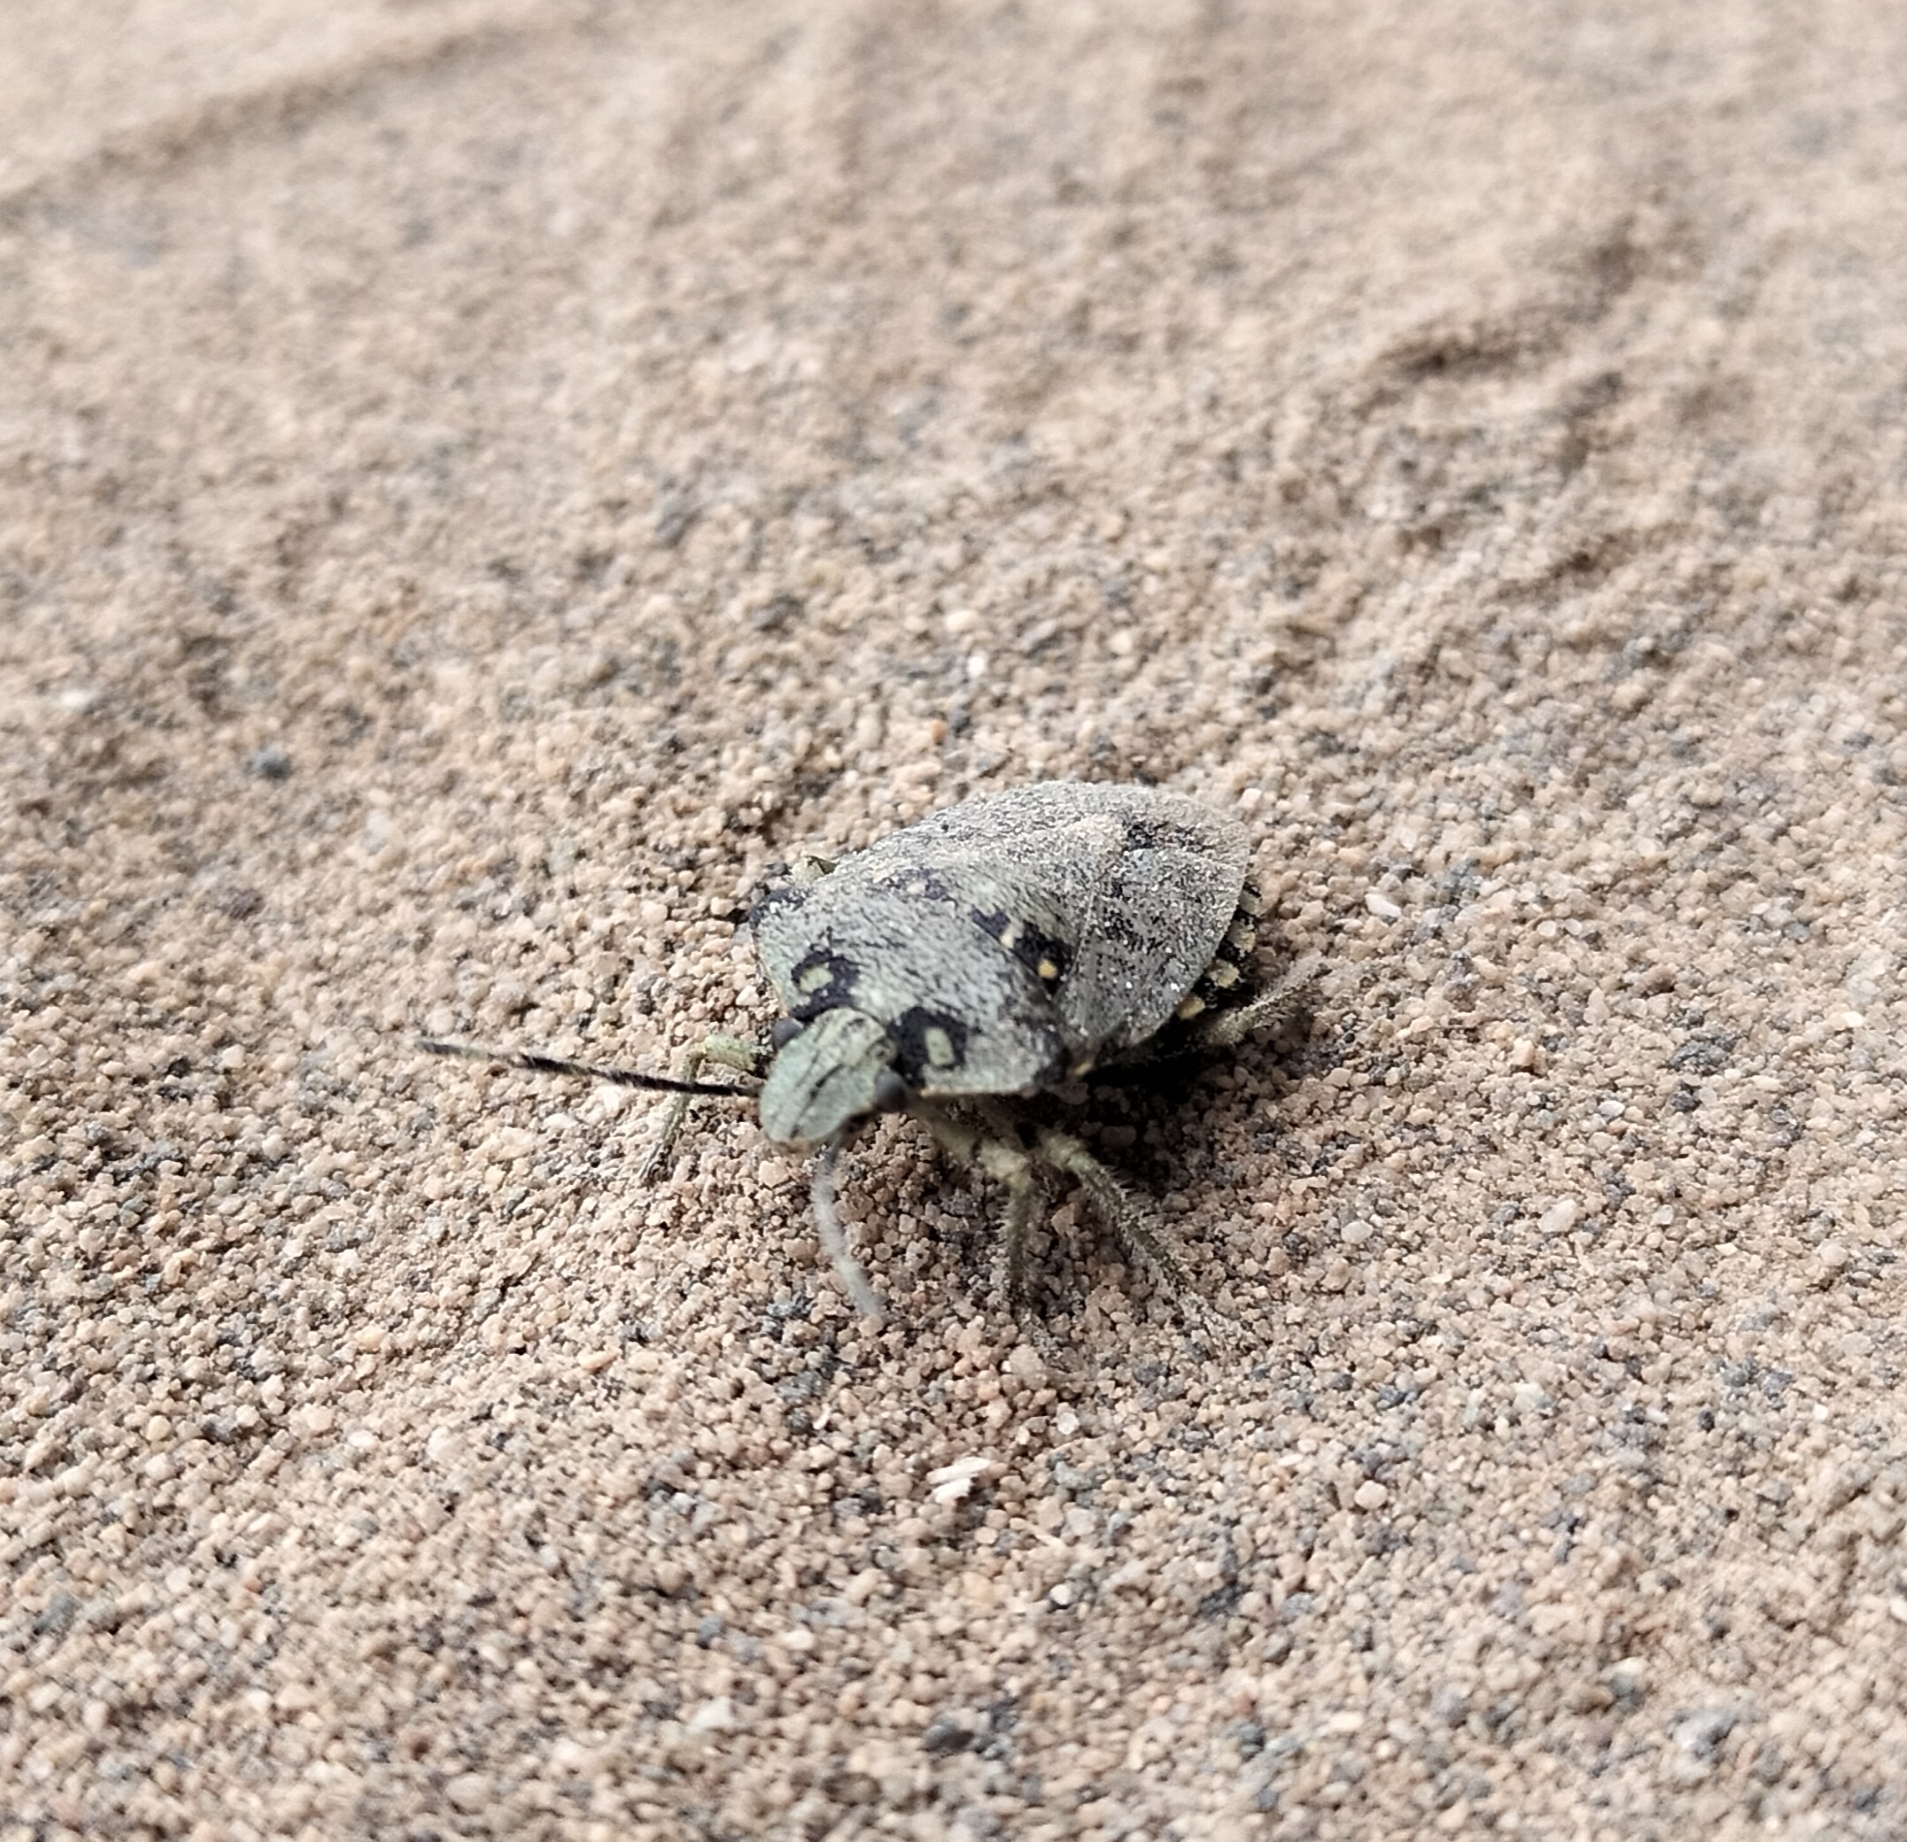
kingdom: Animalia
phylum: Arthropoda
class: Insecta
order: Hemiptera
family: Pentatomidae
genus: Chinavia
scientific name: Chinavia musiva
